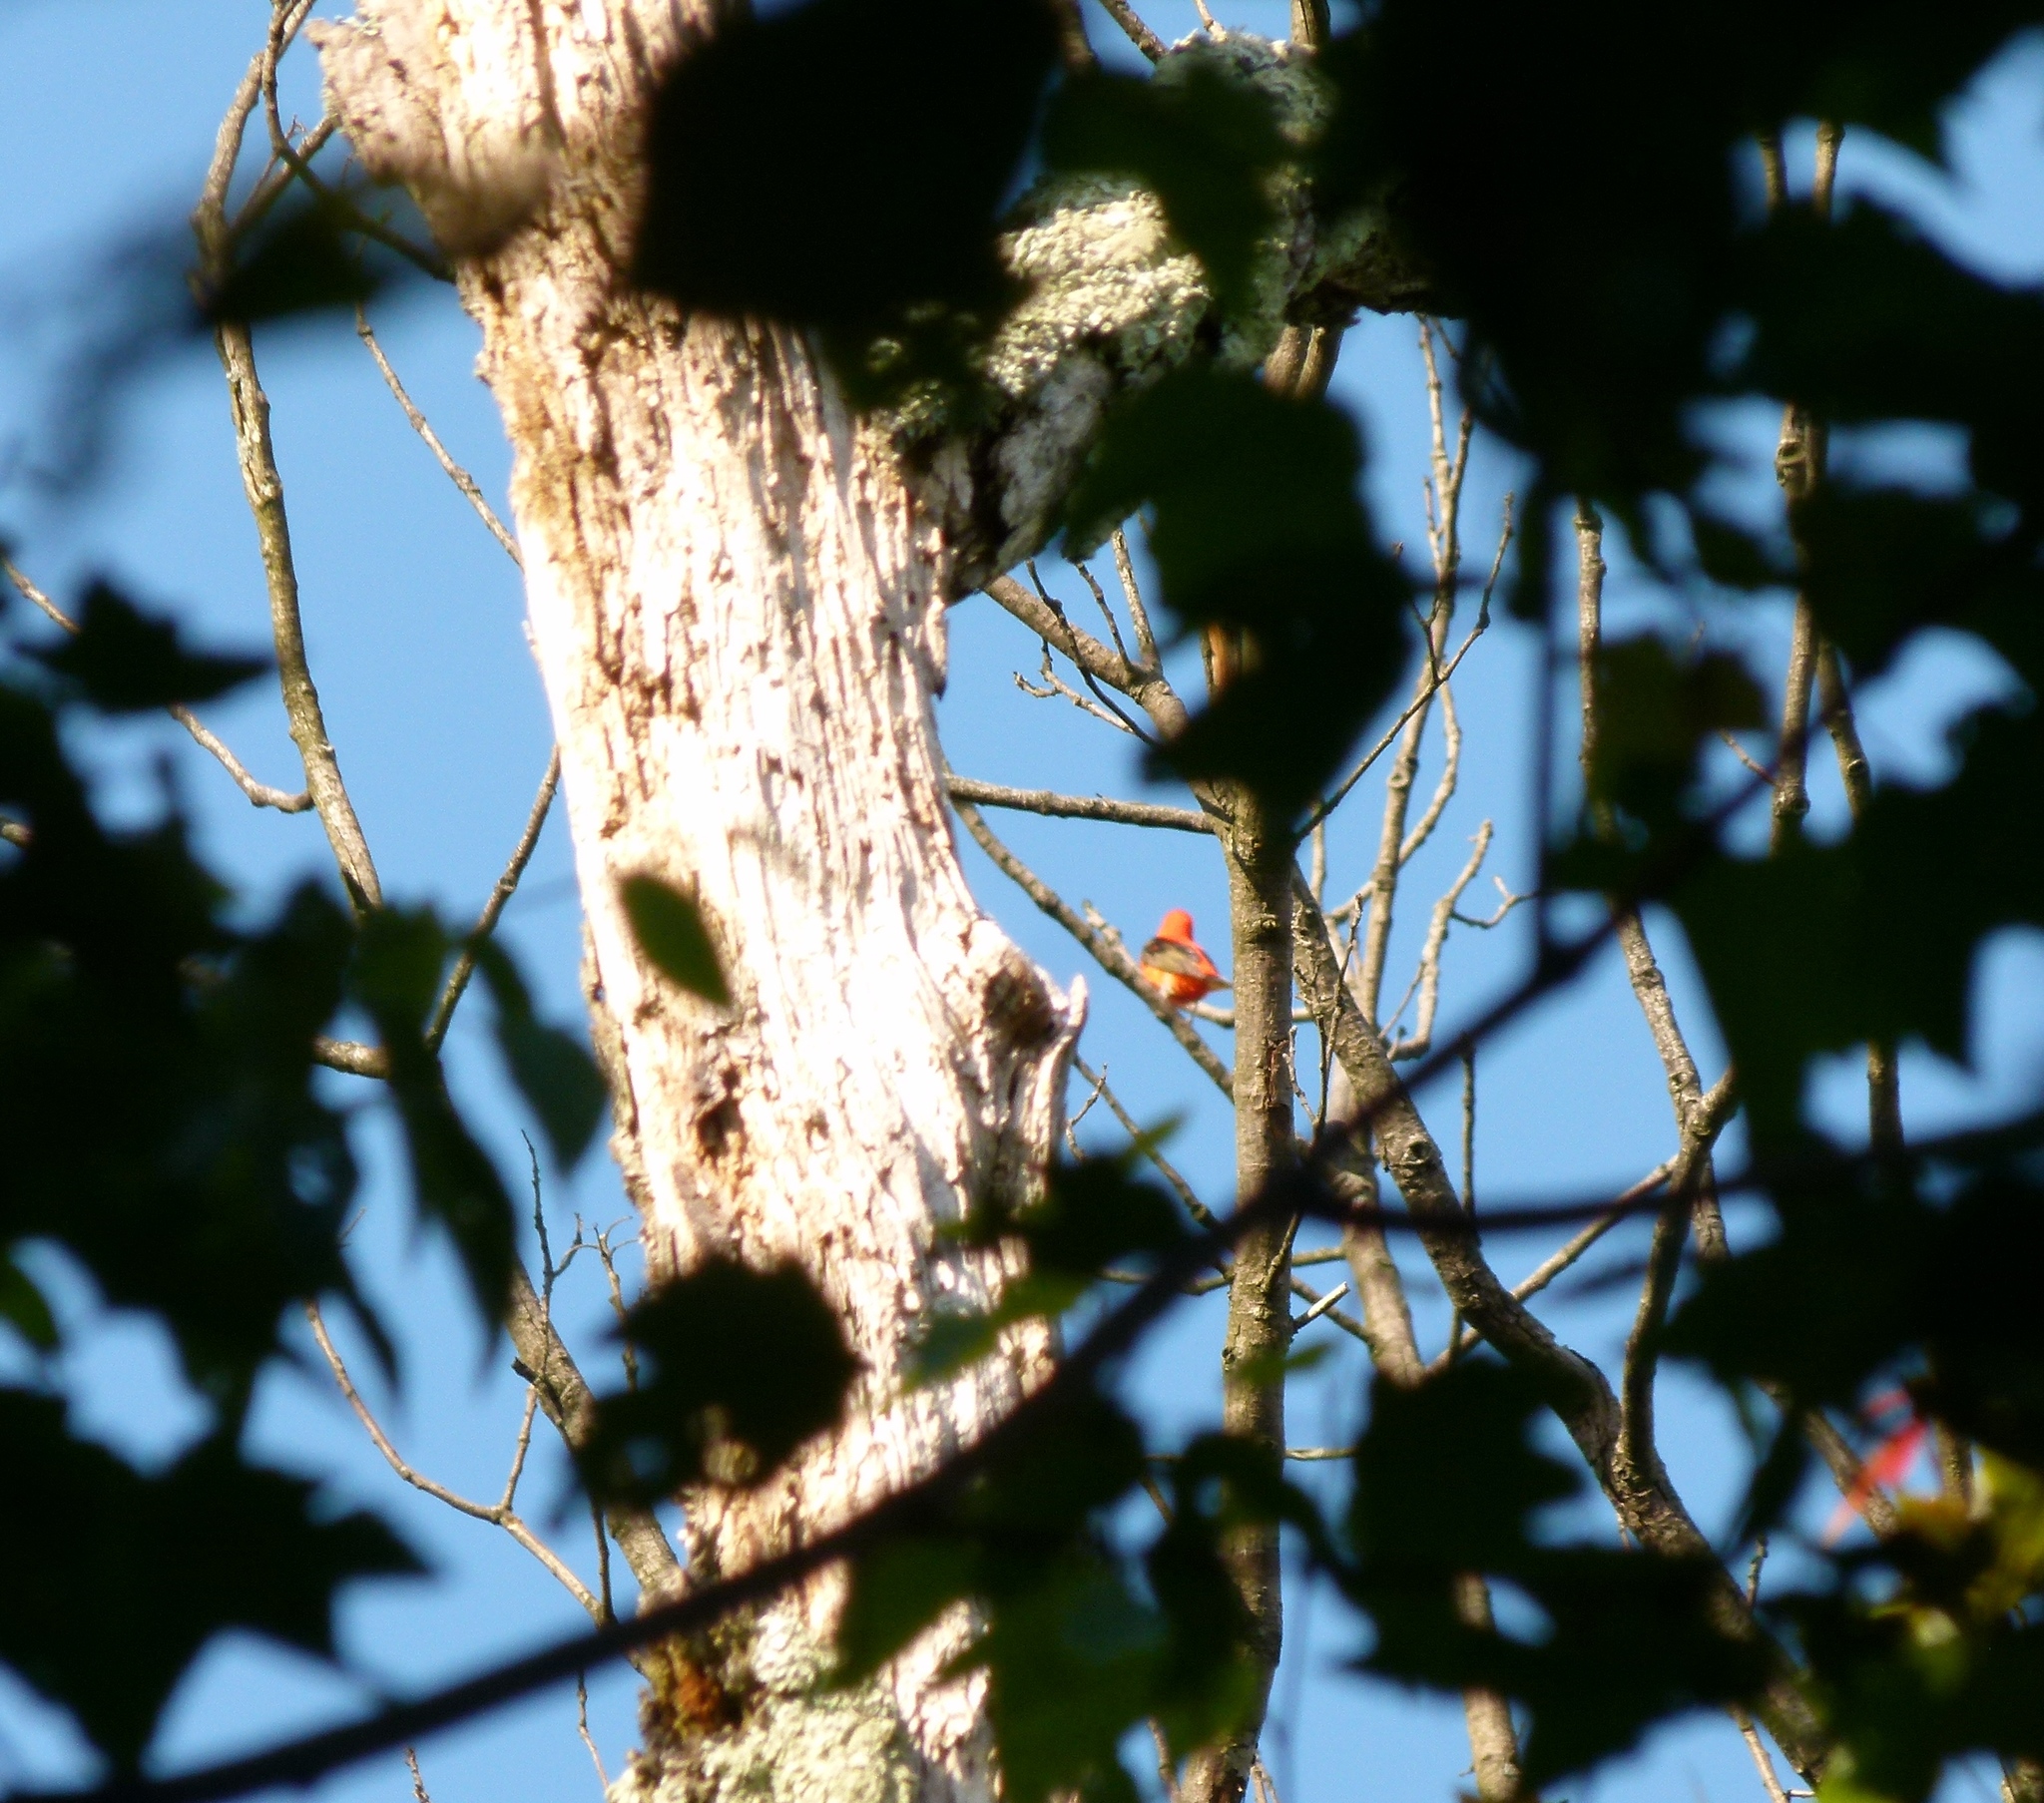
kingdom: Animalia
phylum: Chordata
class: Aves
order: Passeriformes
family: Cardinalidae
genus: Piranga
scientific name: Piranga olivacea
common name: Scarlet tanager
